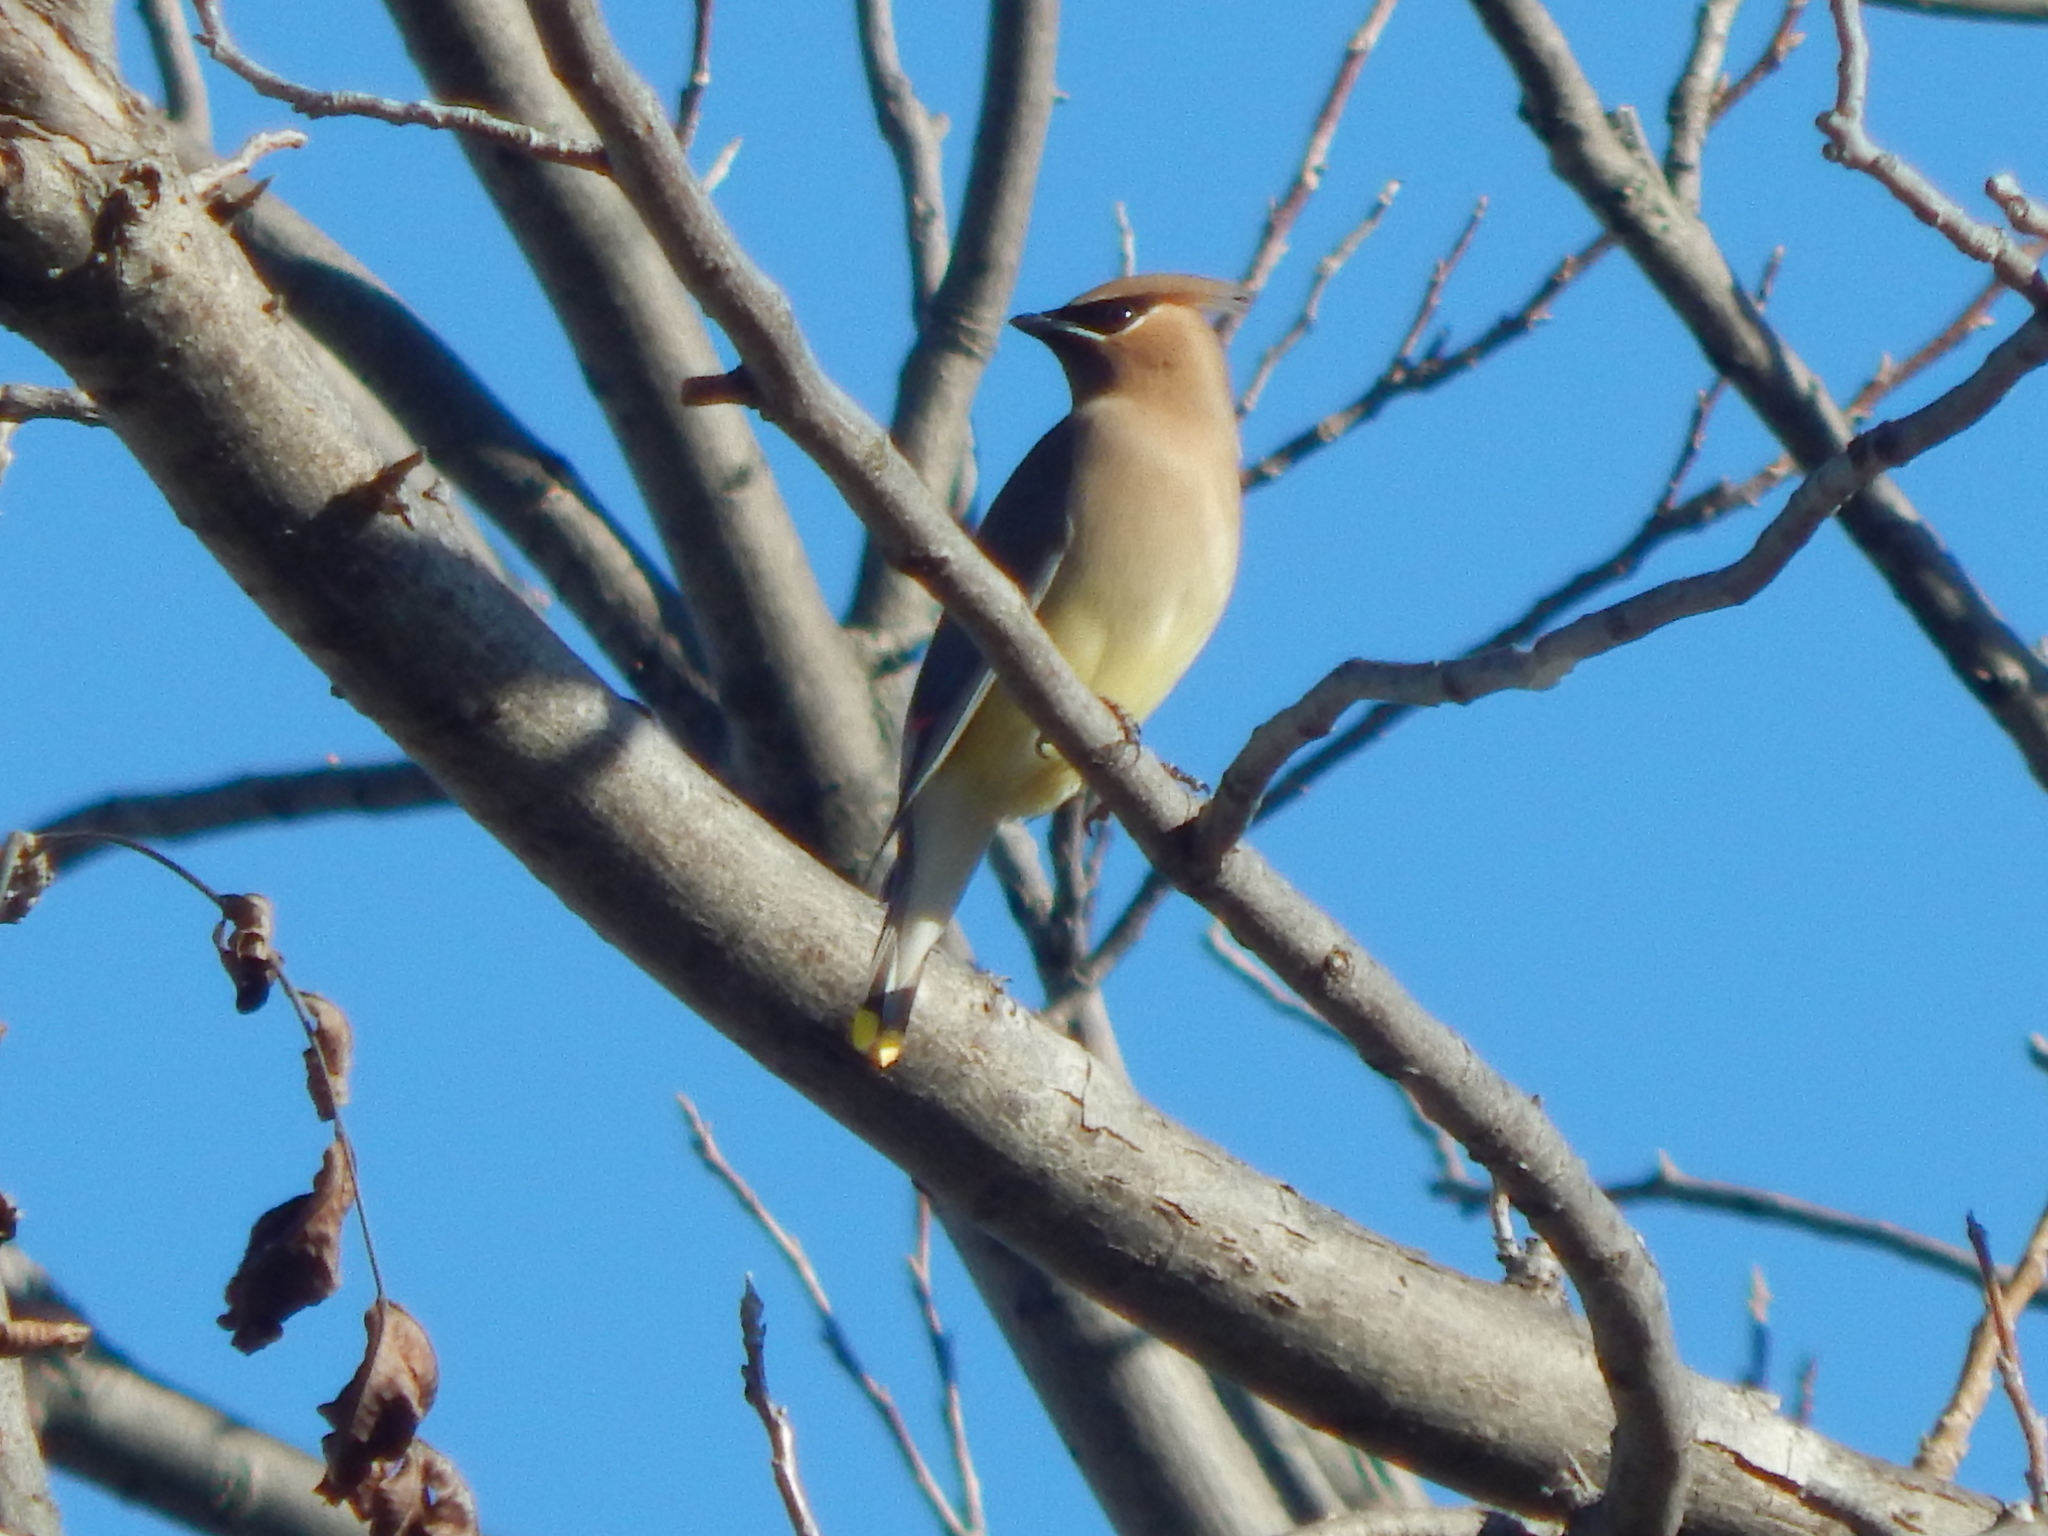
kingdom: Animalia
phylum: Chordata
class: Aves
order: Passeriformes
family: Bombycillidae
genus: Bombycilla
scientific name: Bombycilla cedrorum
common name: Cedar waxwing
